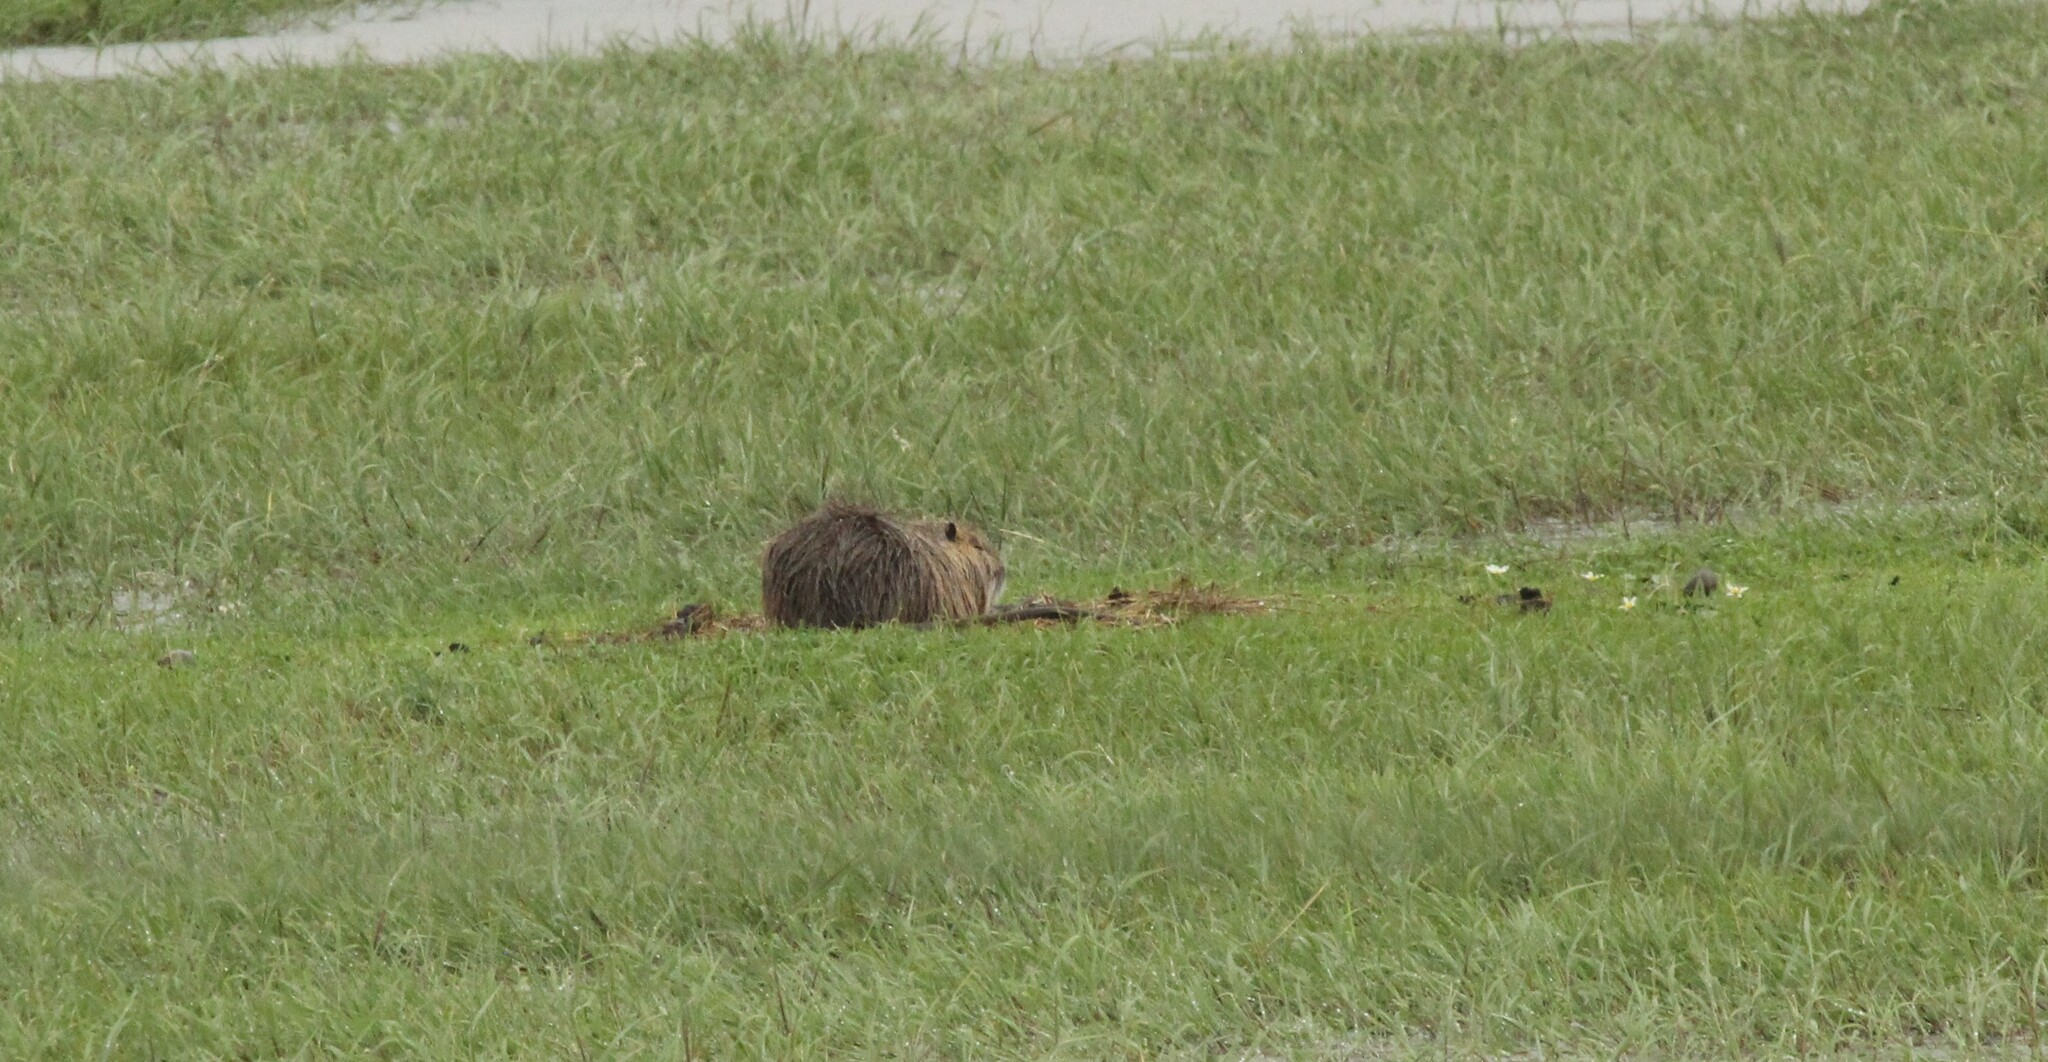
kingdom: Animalia
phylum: Chordata
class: Mammalia
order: Rodentia
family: Myocastoridae
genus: Myocastor
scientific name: Myocastor coypus
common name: Coypu
